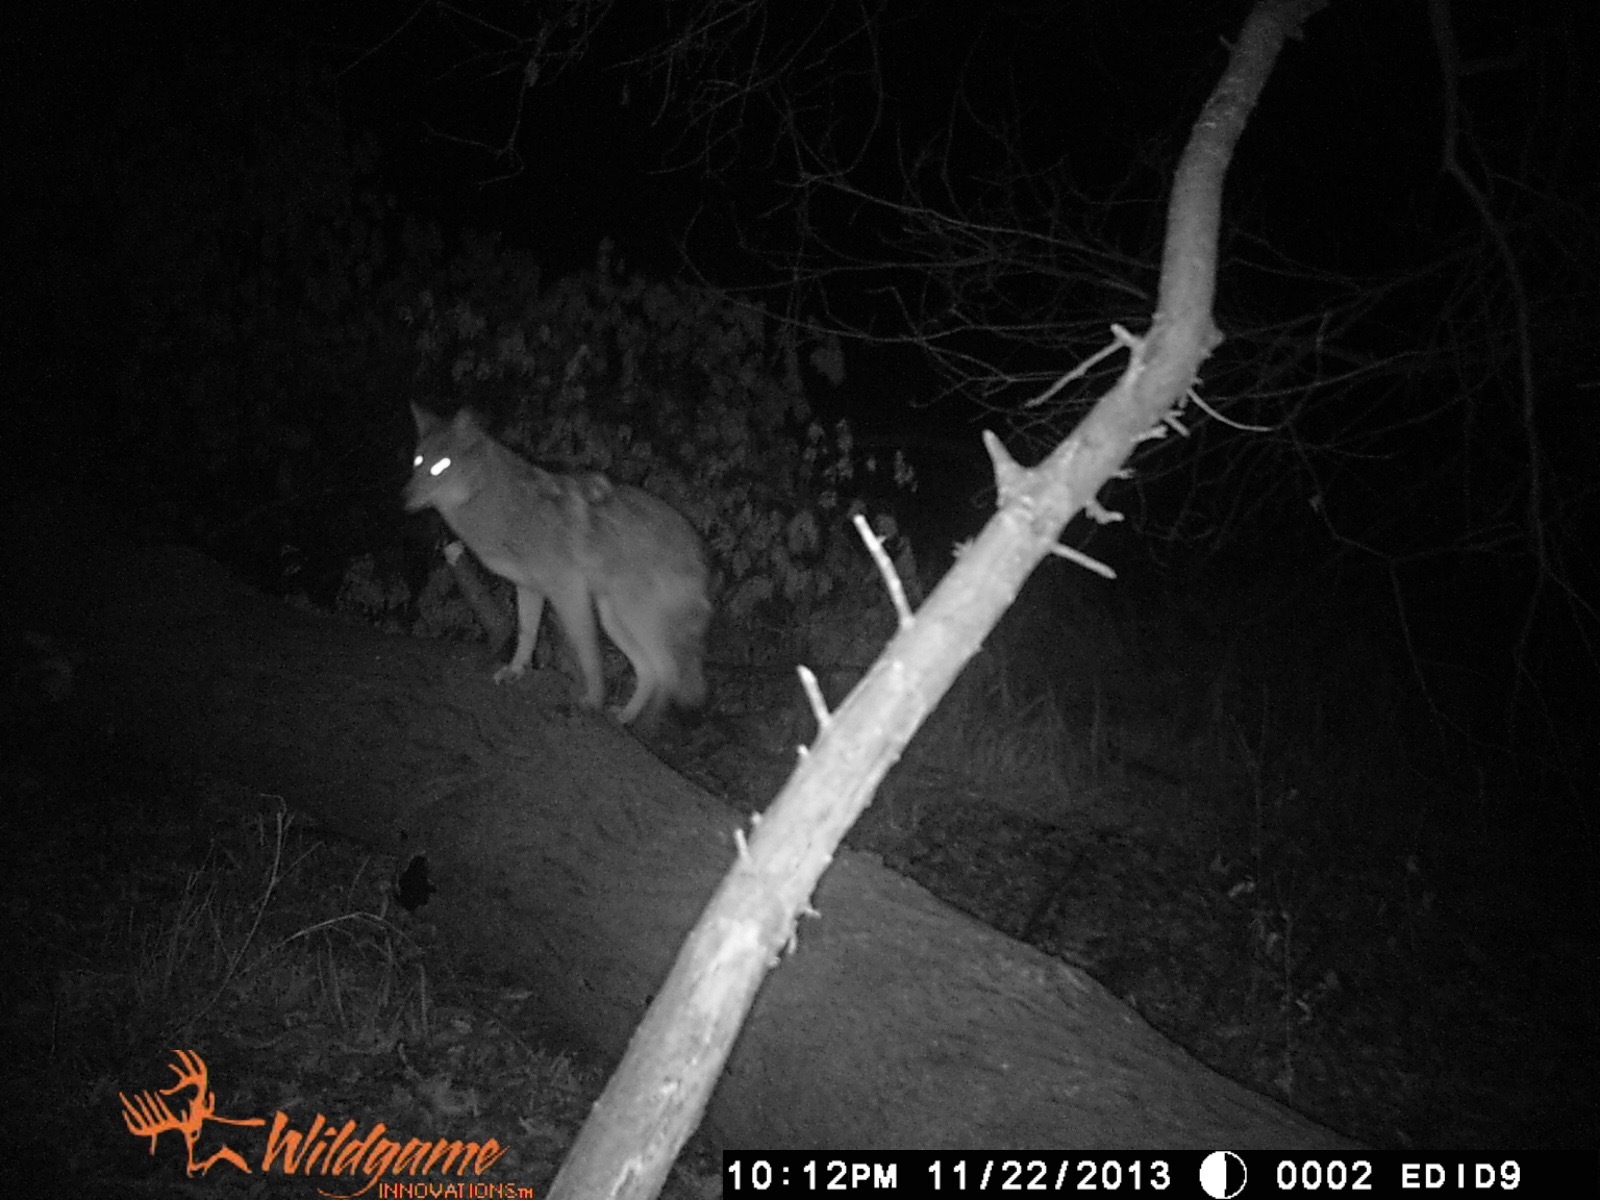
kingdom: Animalia
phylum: Chordata
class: Mammalia
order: Carnivora
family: Canidae
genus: Canis
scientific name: Canis latrans
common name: Coyote
